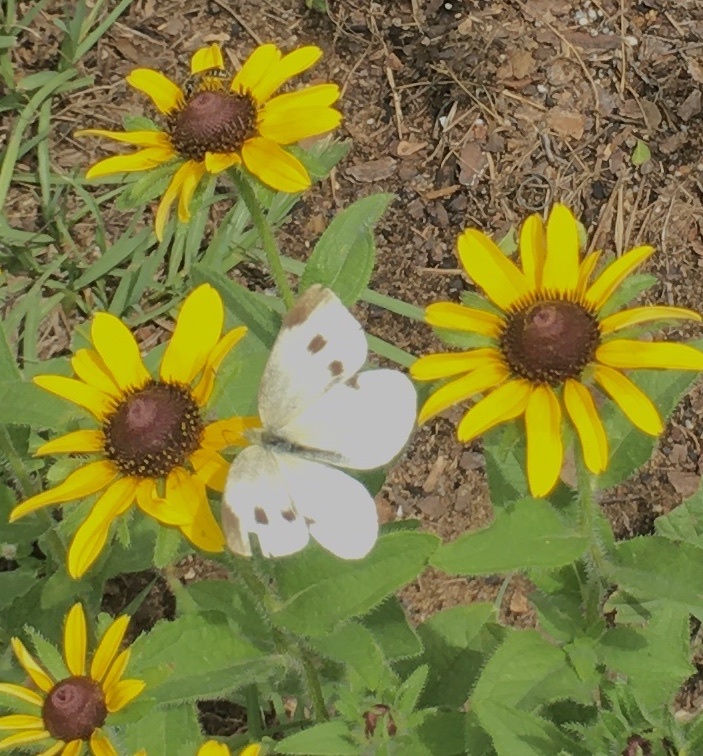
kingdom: Animalia
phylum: Arthropoda
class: Insecta
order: Lepidoptera
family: Pieridae
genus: Pieris
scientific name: Pieris rapae
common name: Small white
